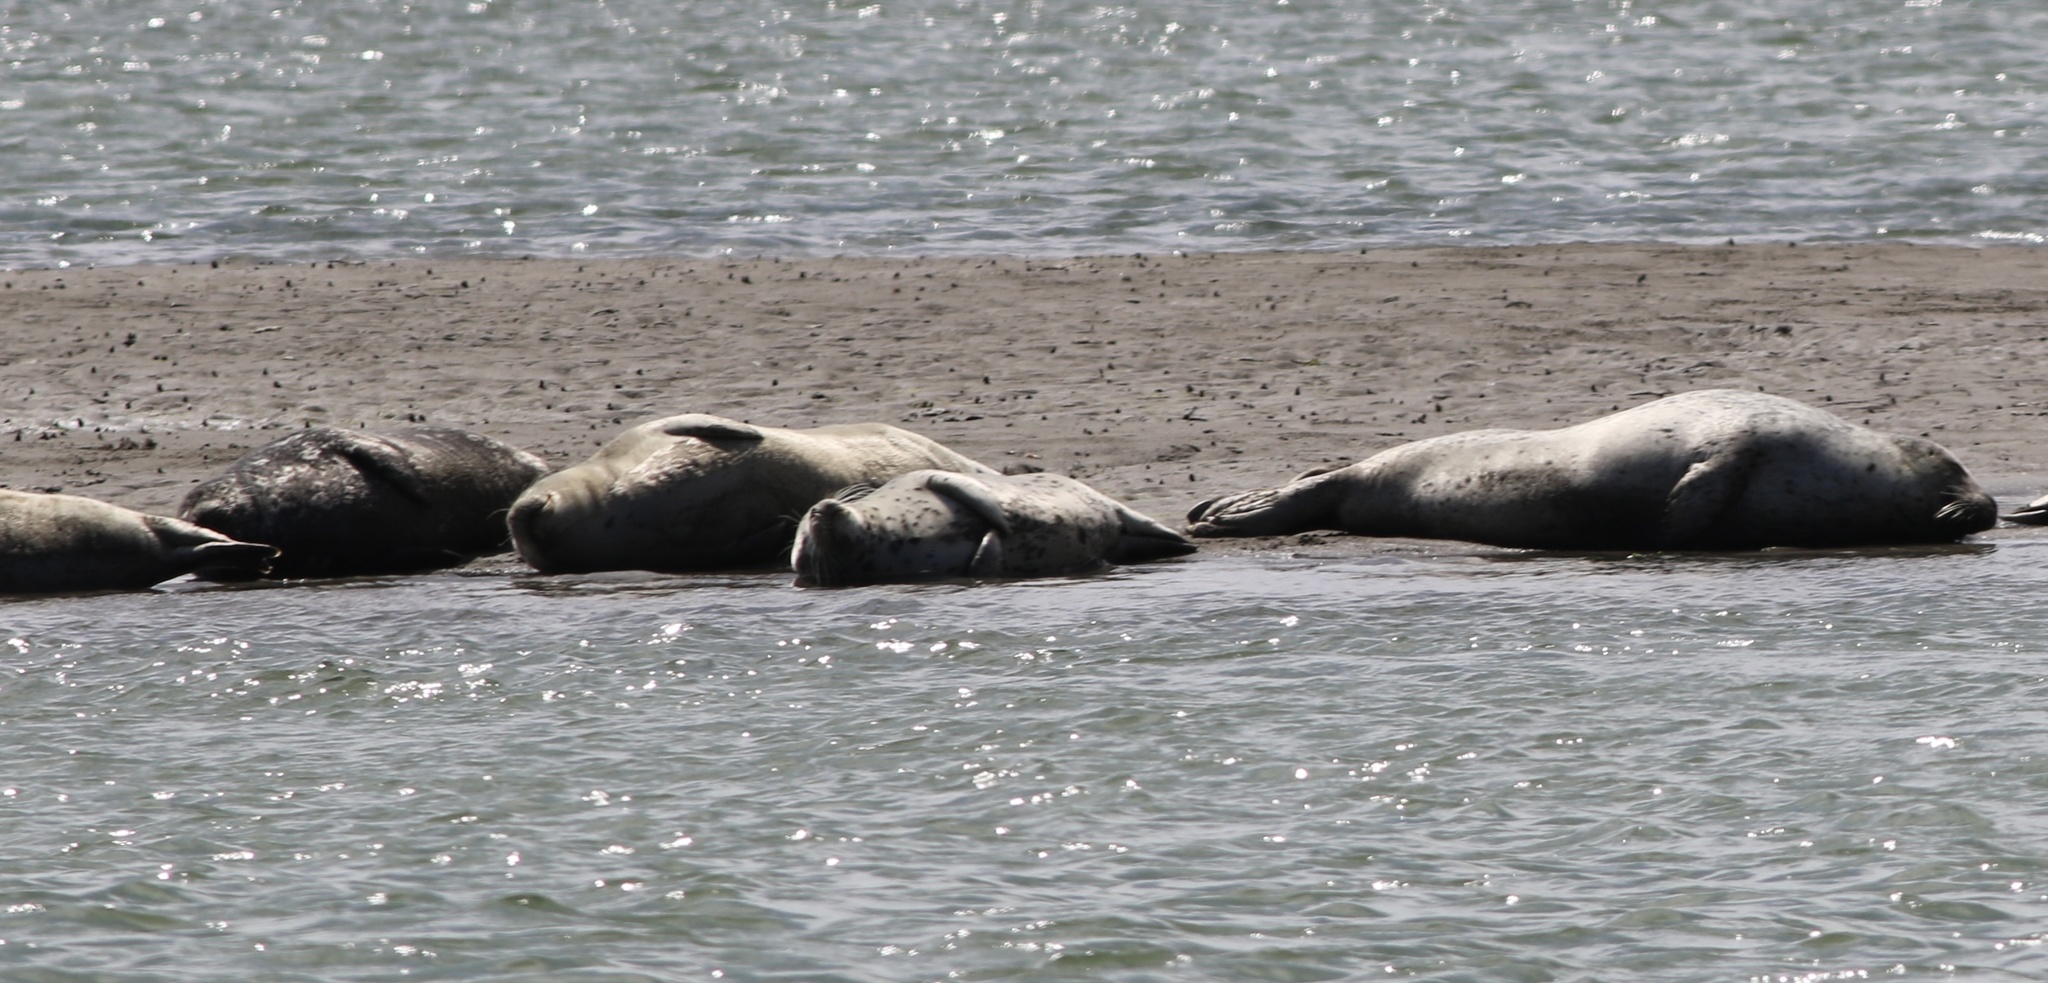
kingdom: Animalia
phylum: Chordata
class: Mammalia
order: Carnivora
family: Phocidae
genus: Phoca
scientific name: Phoca vitulina
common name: Harbor seal
